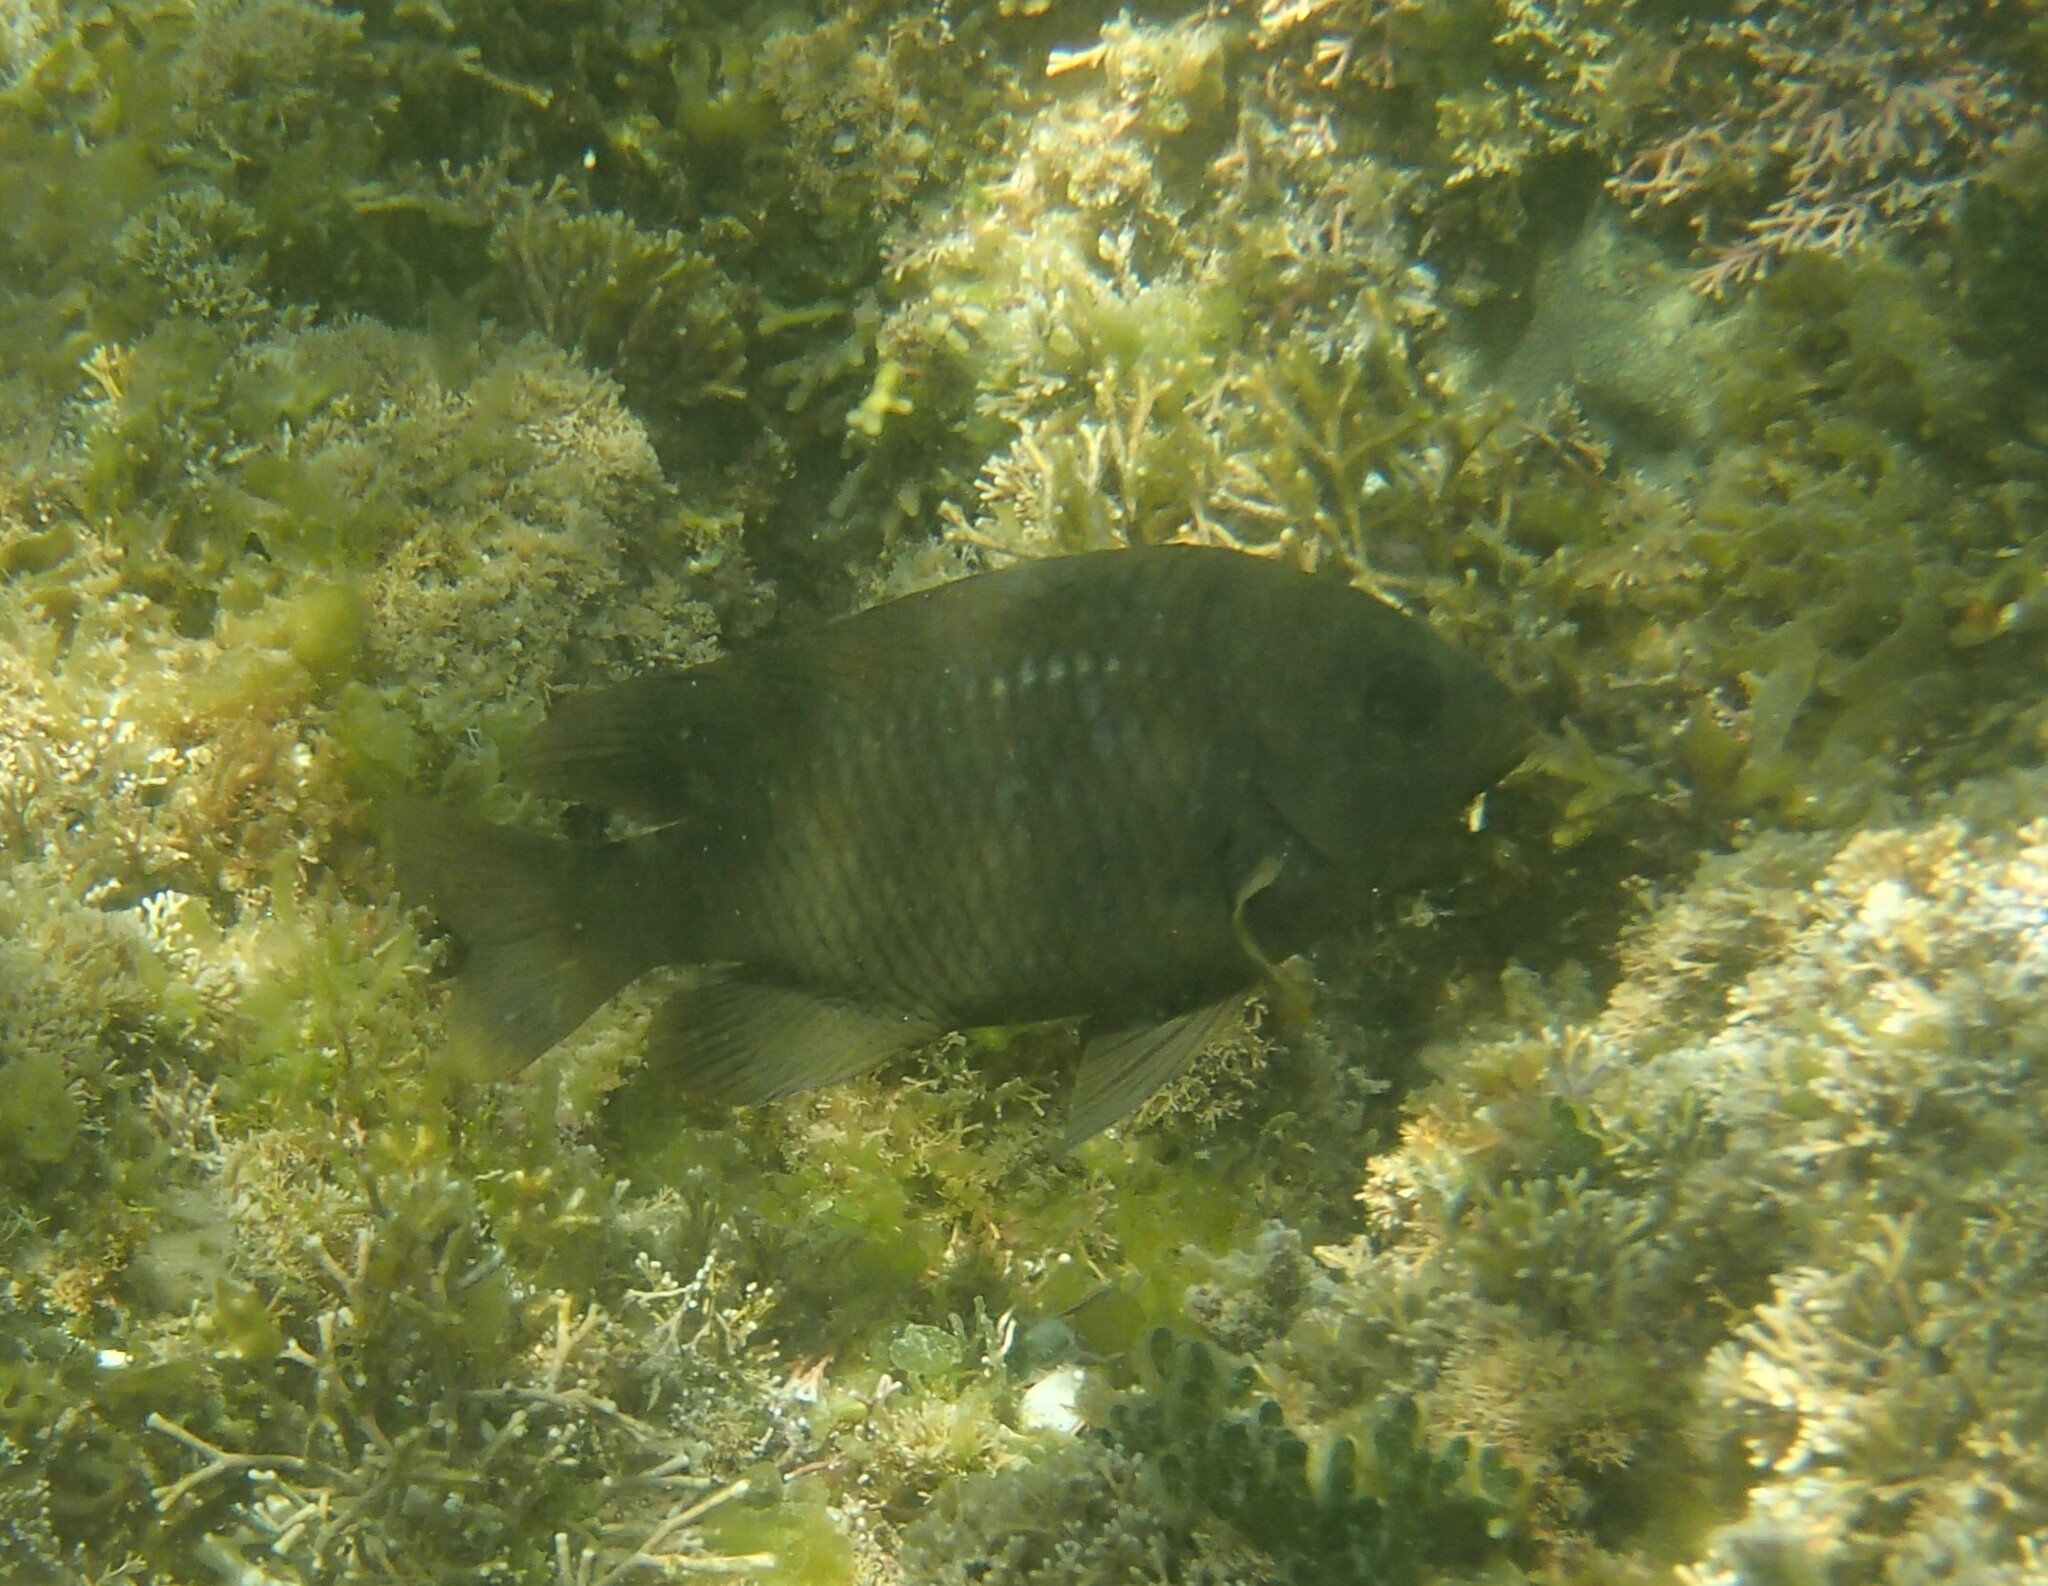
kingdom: Animalia
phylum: Chordata
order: Perciformes
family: Pomacentridae
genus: Stegastes
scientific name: Stegastes rectifraenum
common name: Cortez damselfish
